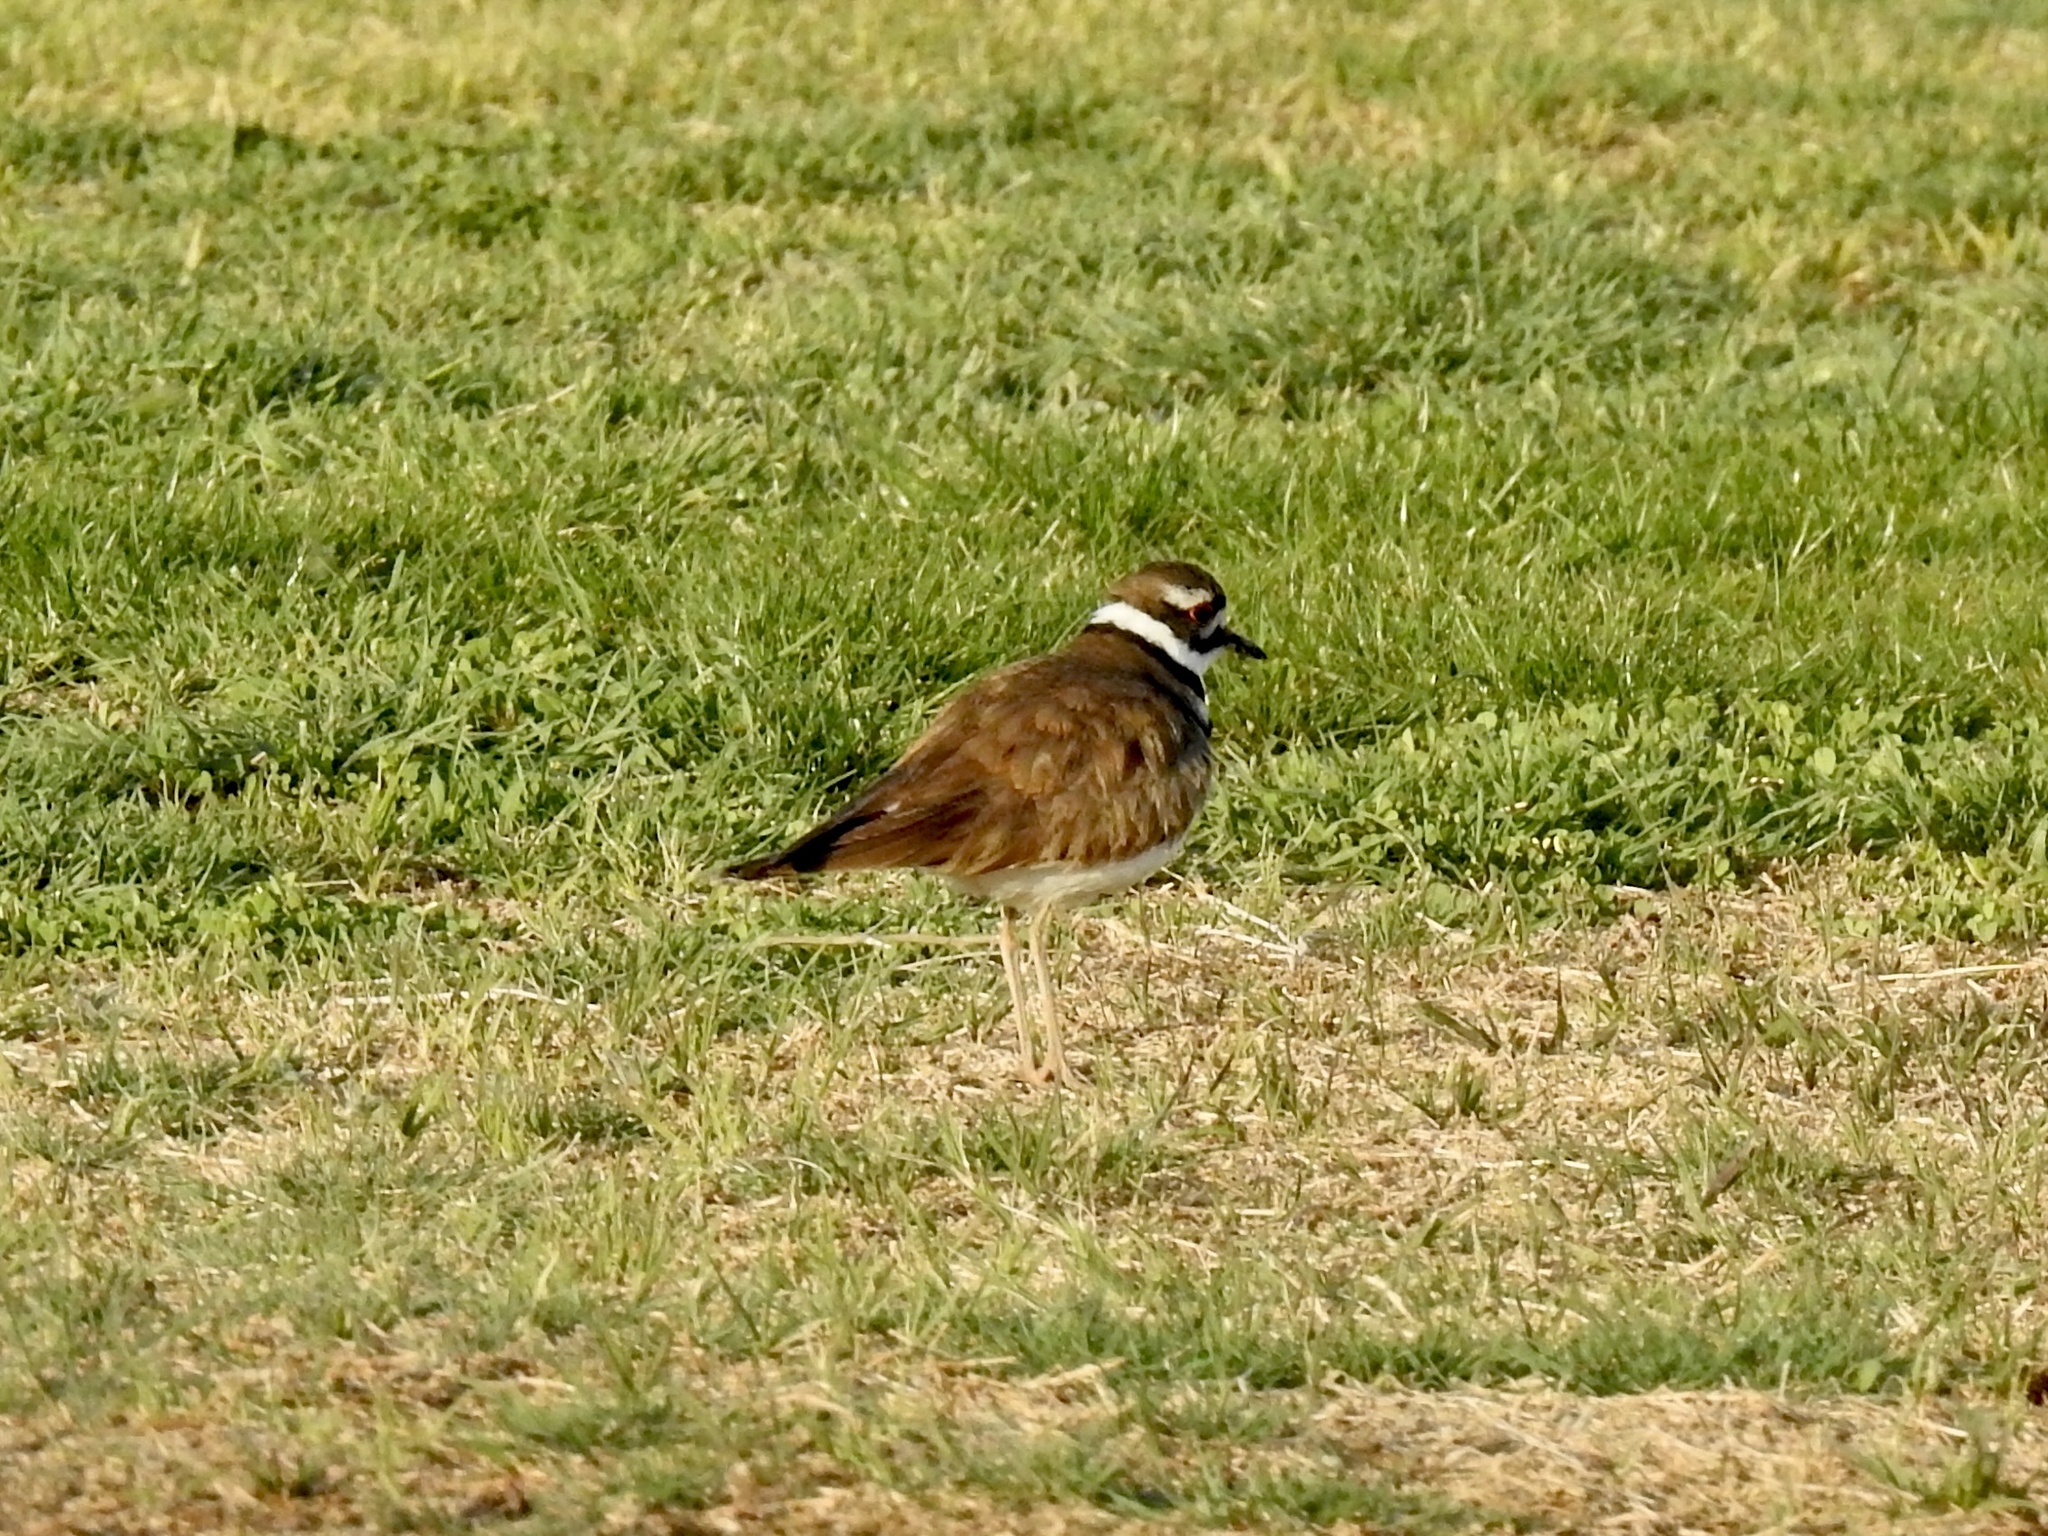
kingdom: Animalia
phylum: Chordata
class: Aves
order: Charadriiformes
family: Charadriidae
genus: Charadrius
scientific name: Charadrius vociferus
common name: Killdeer
